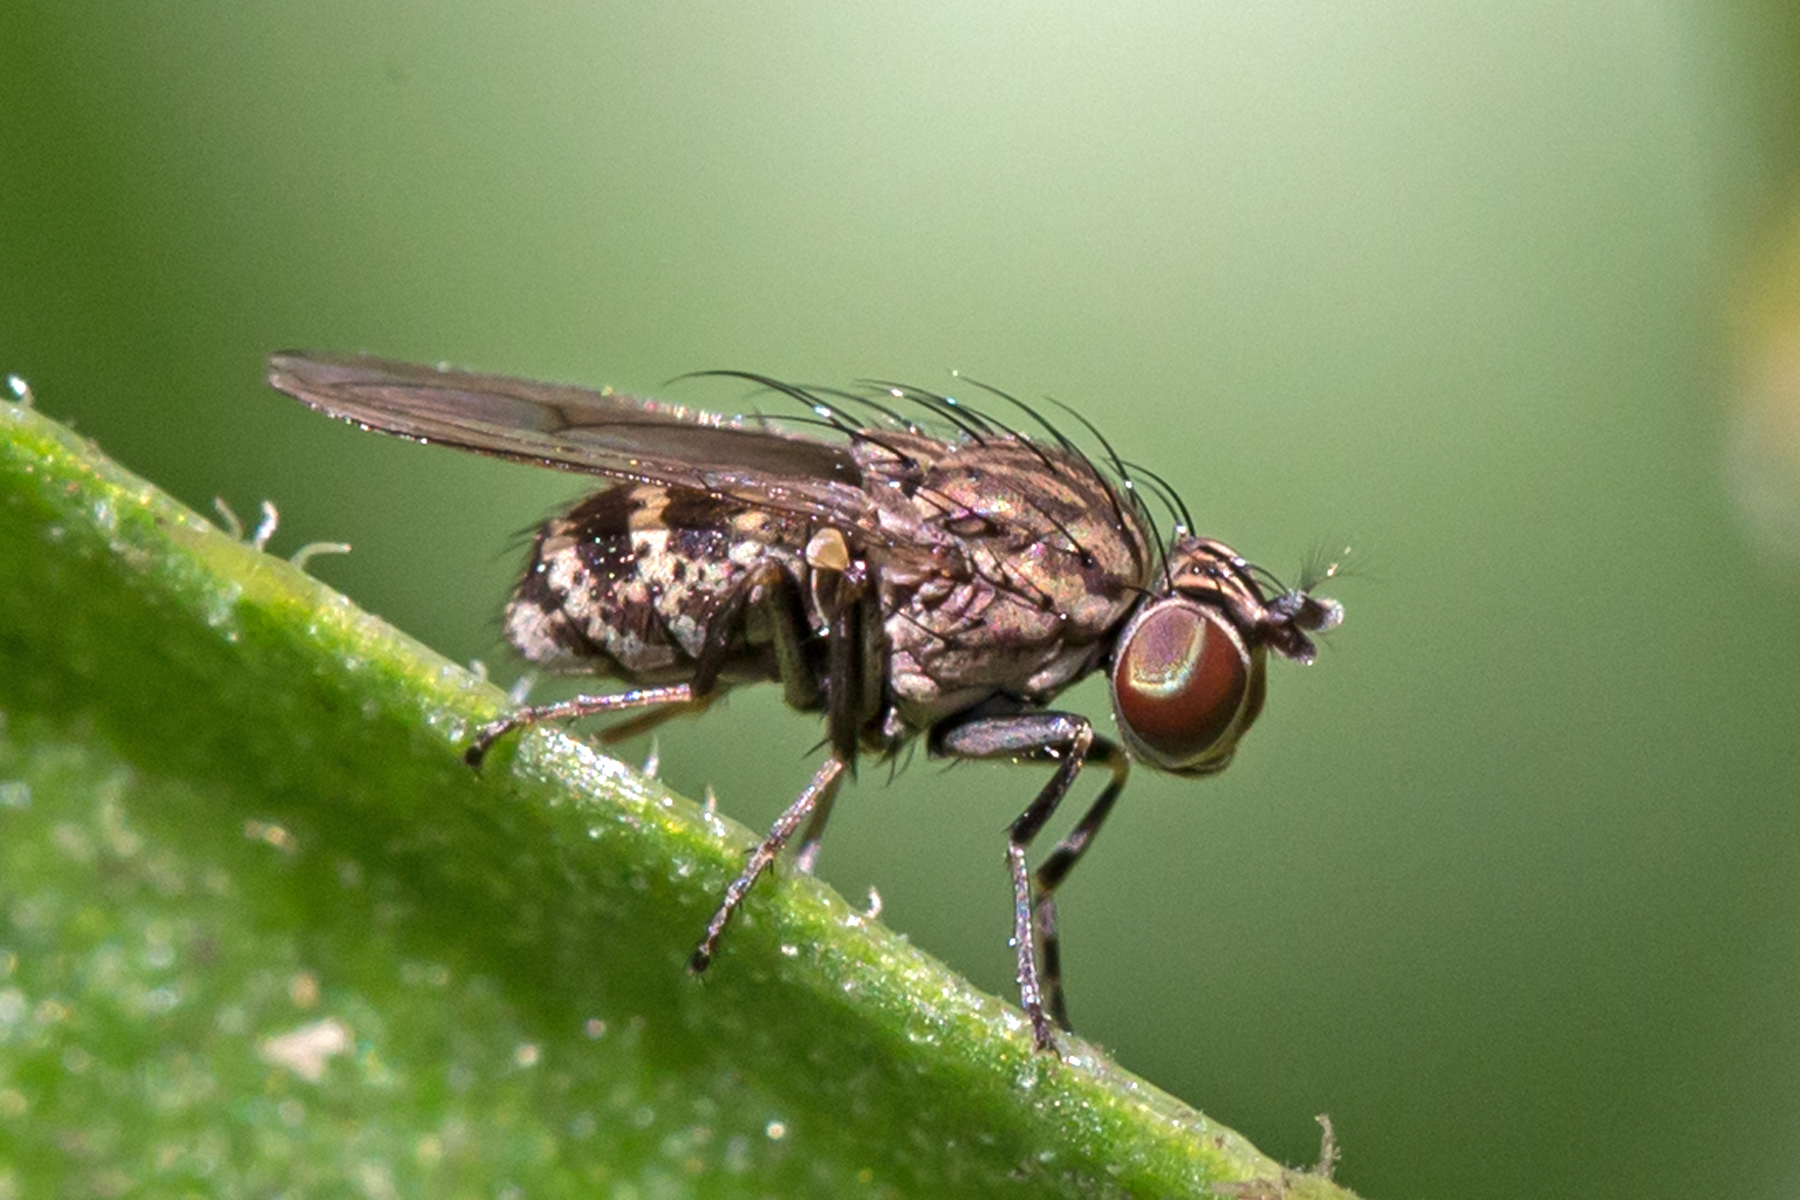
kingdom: Animalia
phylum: Arthropoda
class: Insecta
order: Diptera
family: Ephydridae
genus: Notiphila
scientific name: Notiphila pulchrifrons
